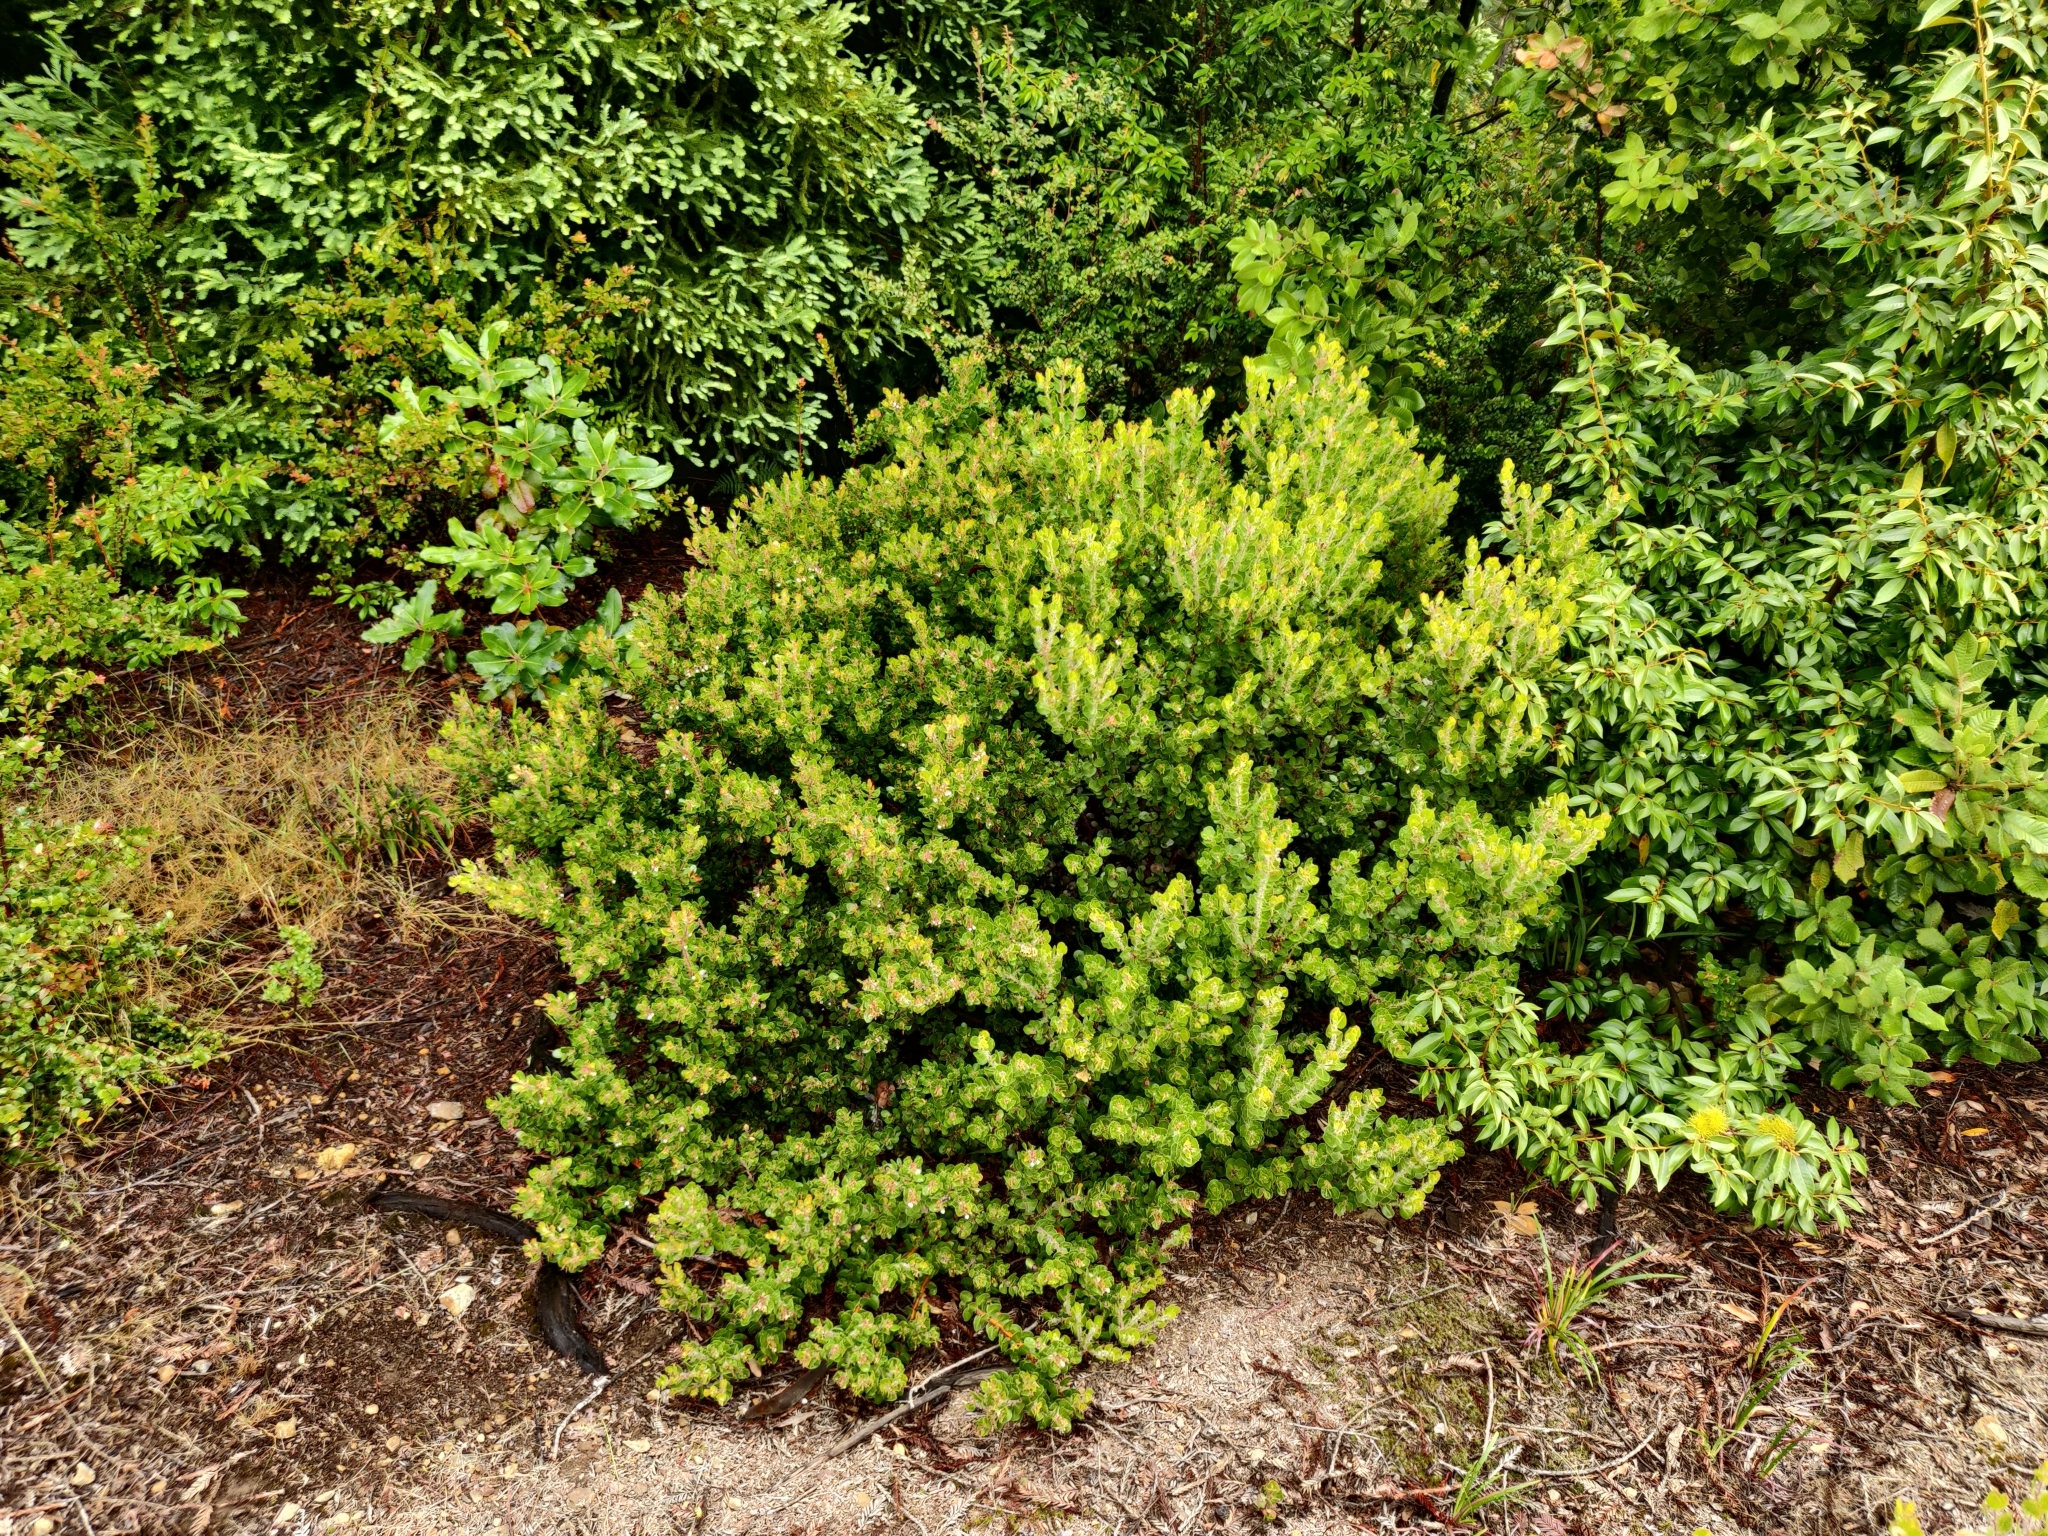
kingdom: Plantae
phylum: Tracheophyta
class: Magnoliopsida
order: Ericales
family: Ericaceae
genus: Arctostaphylos
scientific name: Arctostaphylos nummularia
